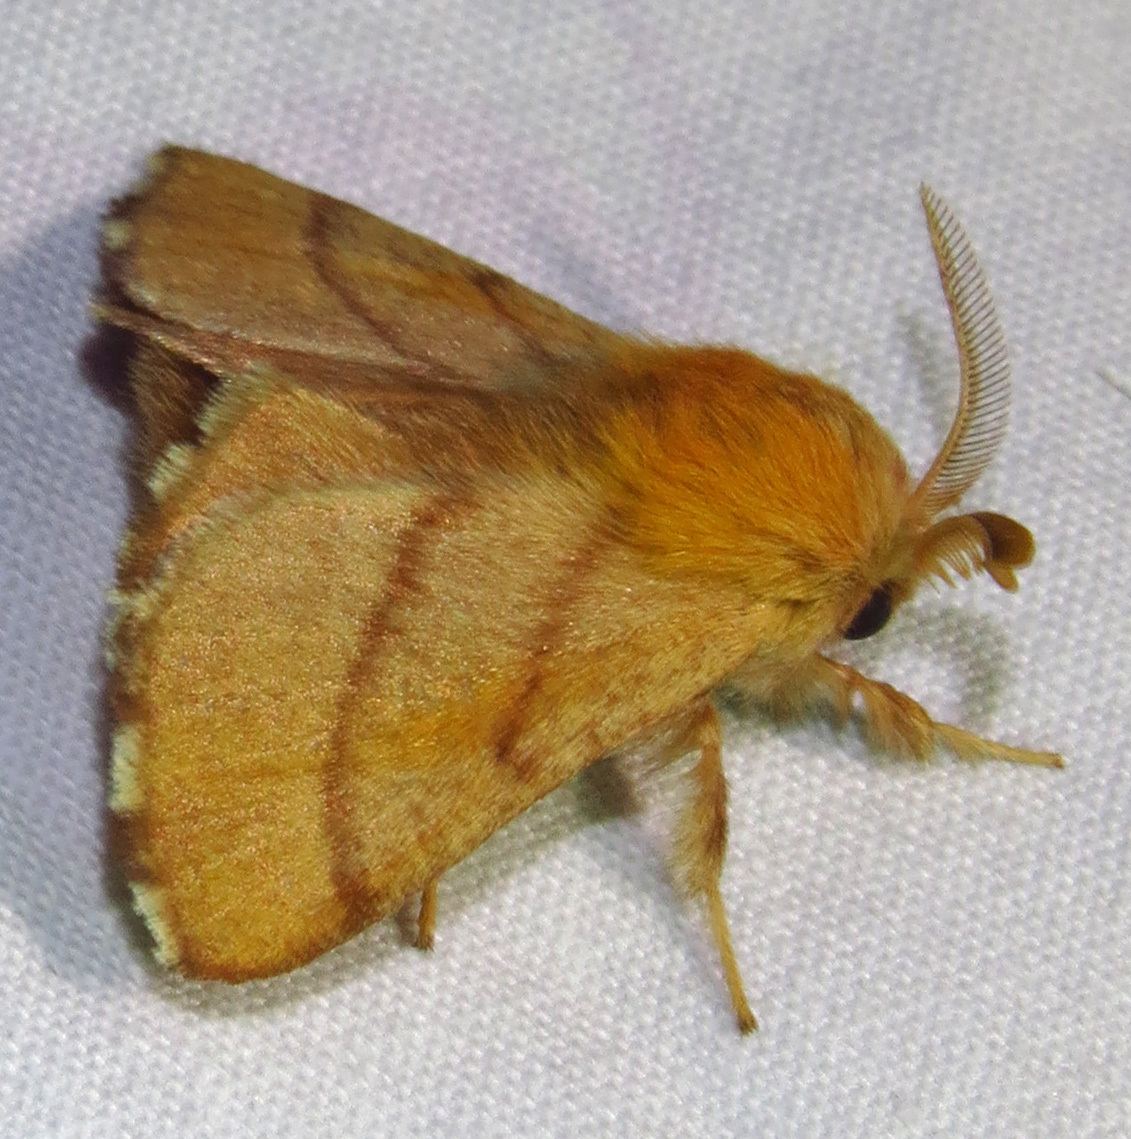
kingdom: Animalia
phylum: Arthropoda
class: Insecta
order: Lepidoptera
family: Lasiocampidae
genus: Malacosoma
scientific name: Malacosoma disstria
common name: Forest tent caterpillar
